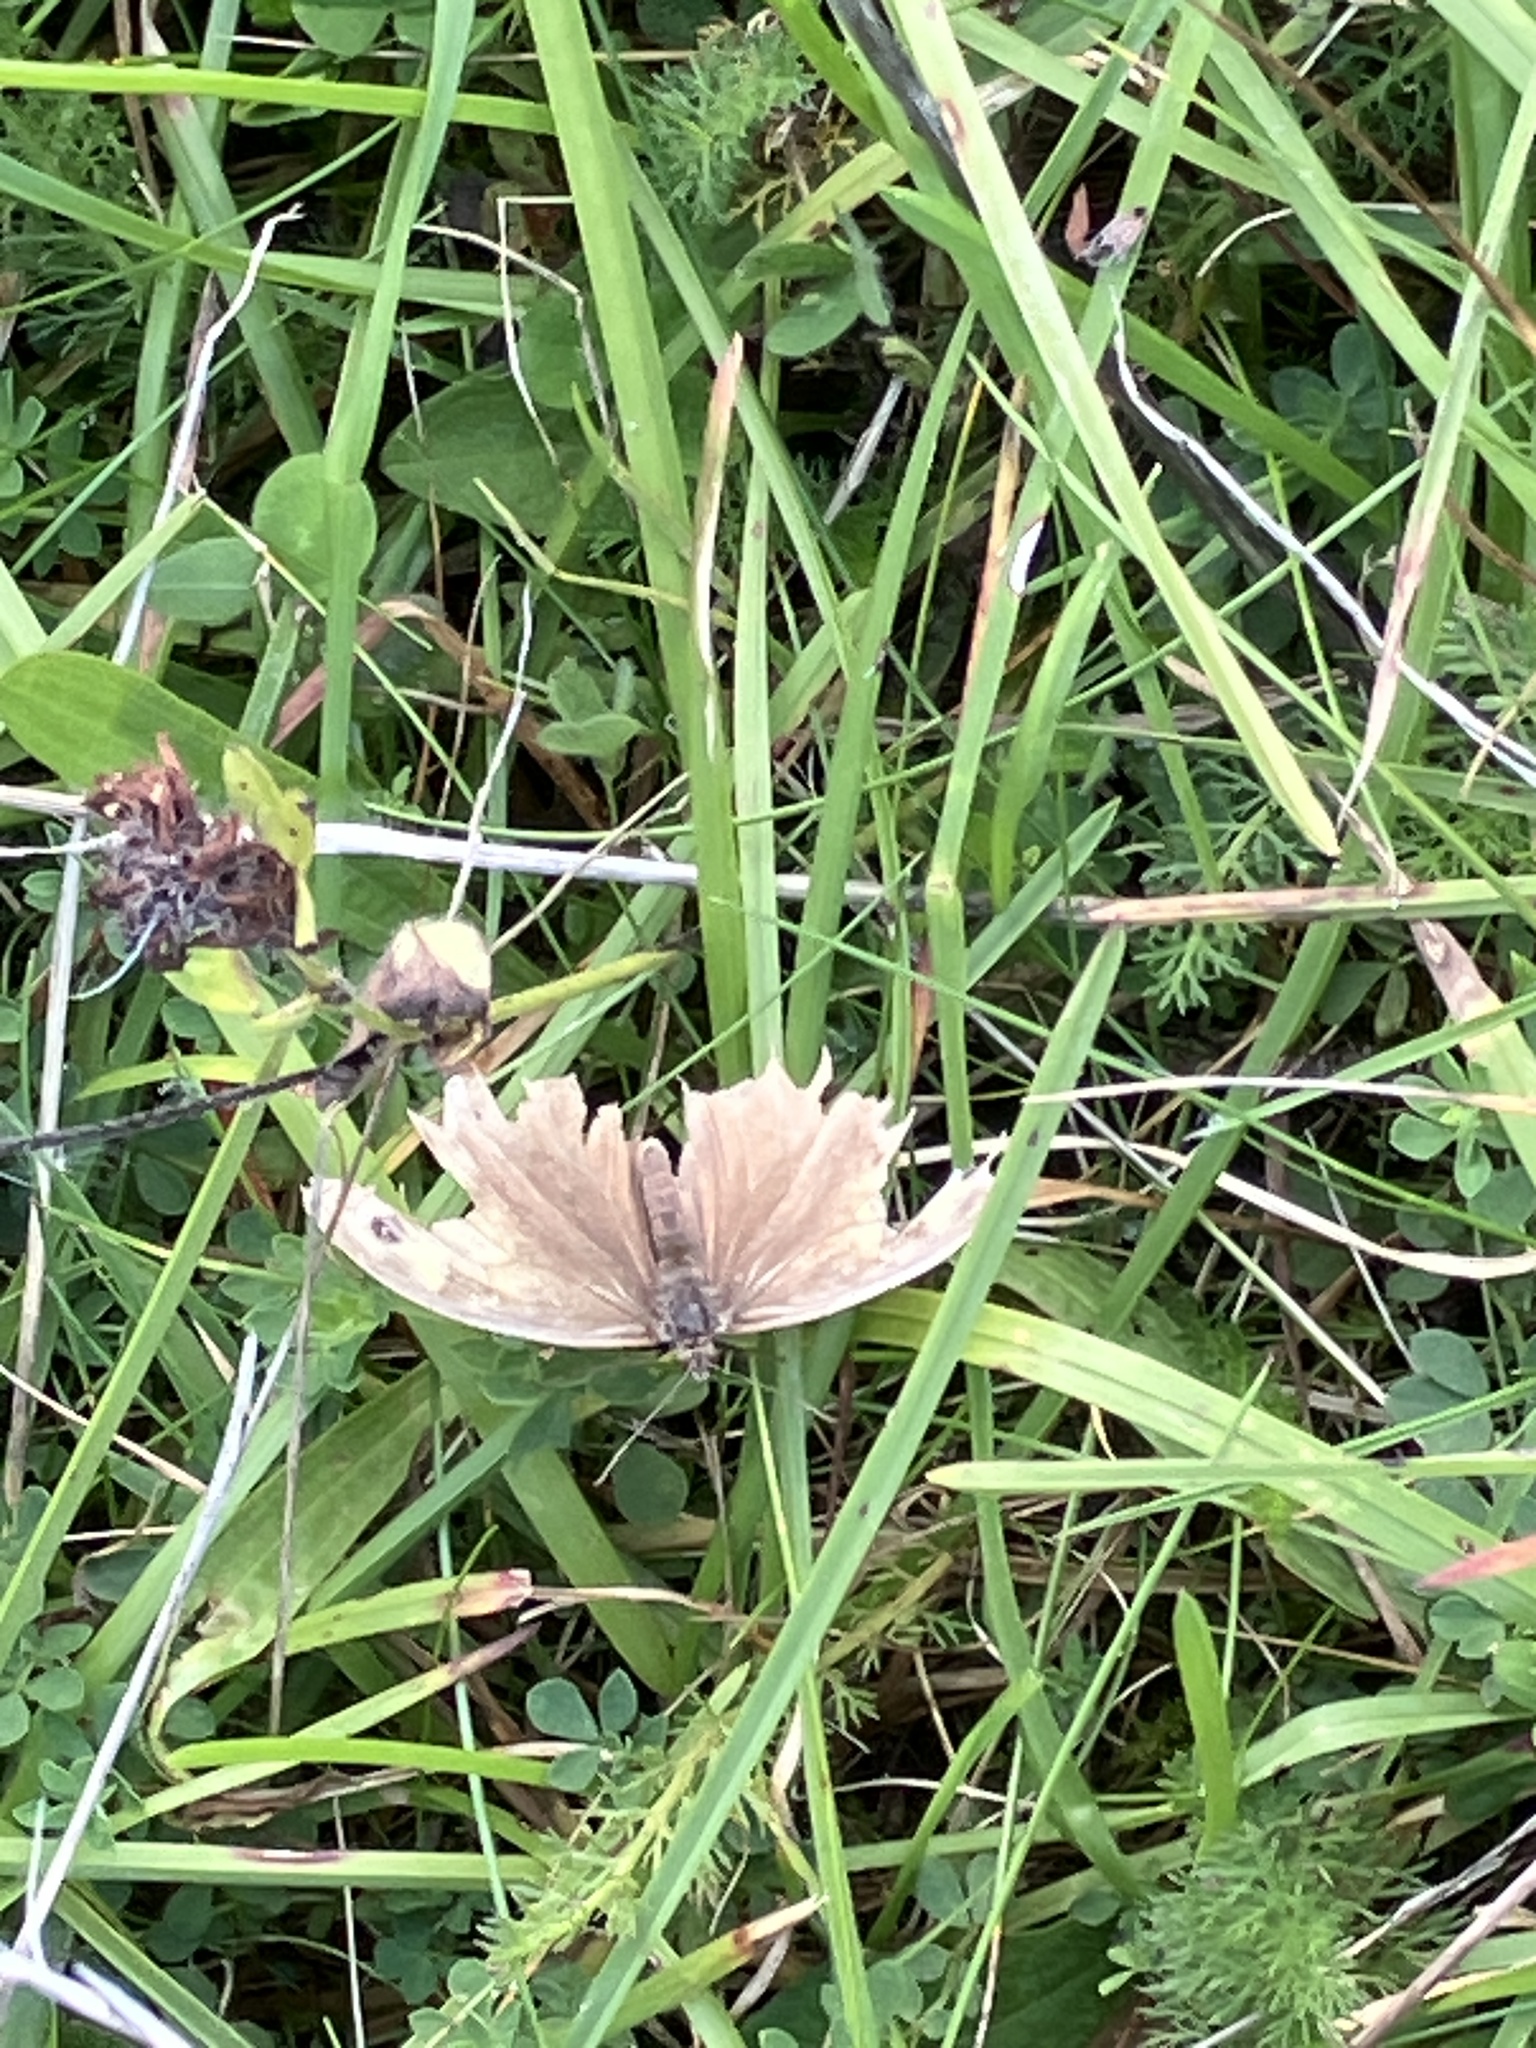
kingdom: Animalia
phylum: Arthropoda
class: Insecta
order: Lepidoptera
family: Nymphalidae
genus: Maniola
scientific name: Maniola jurtina
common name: Meadow brown
